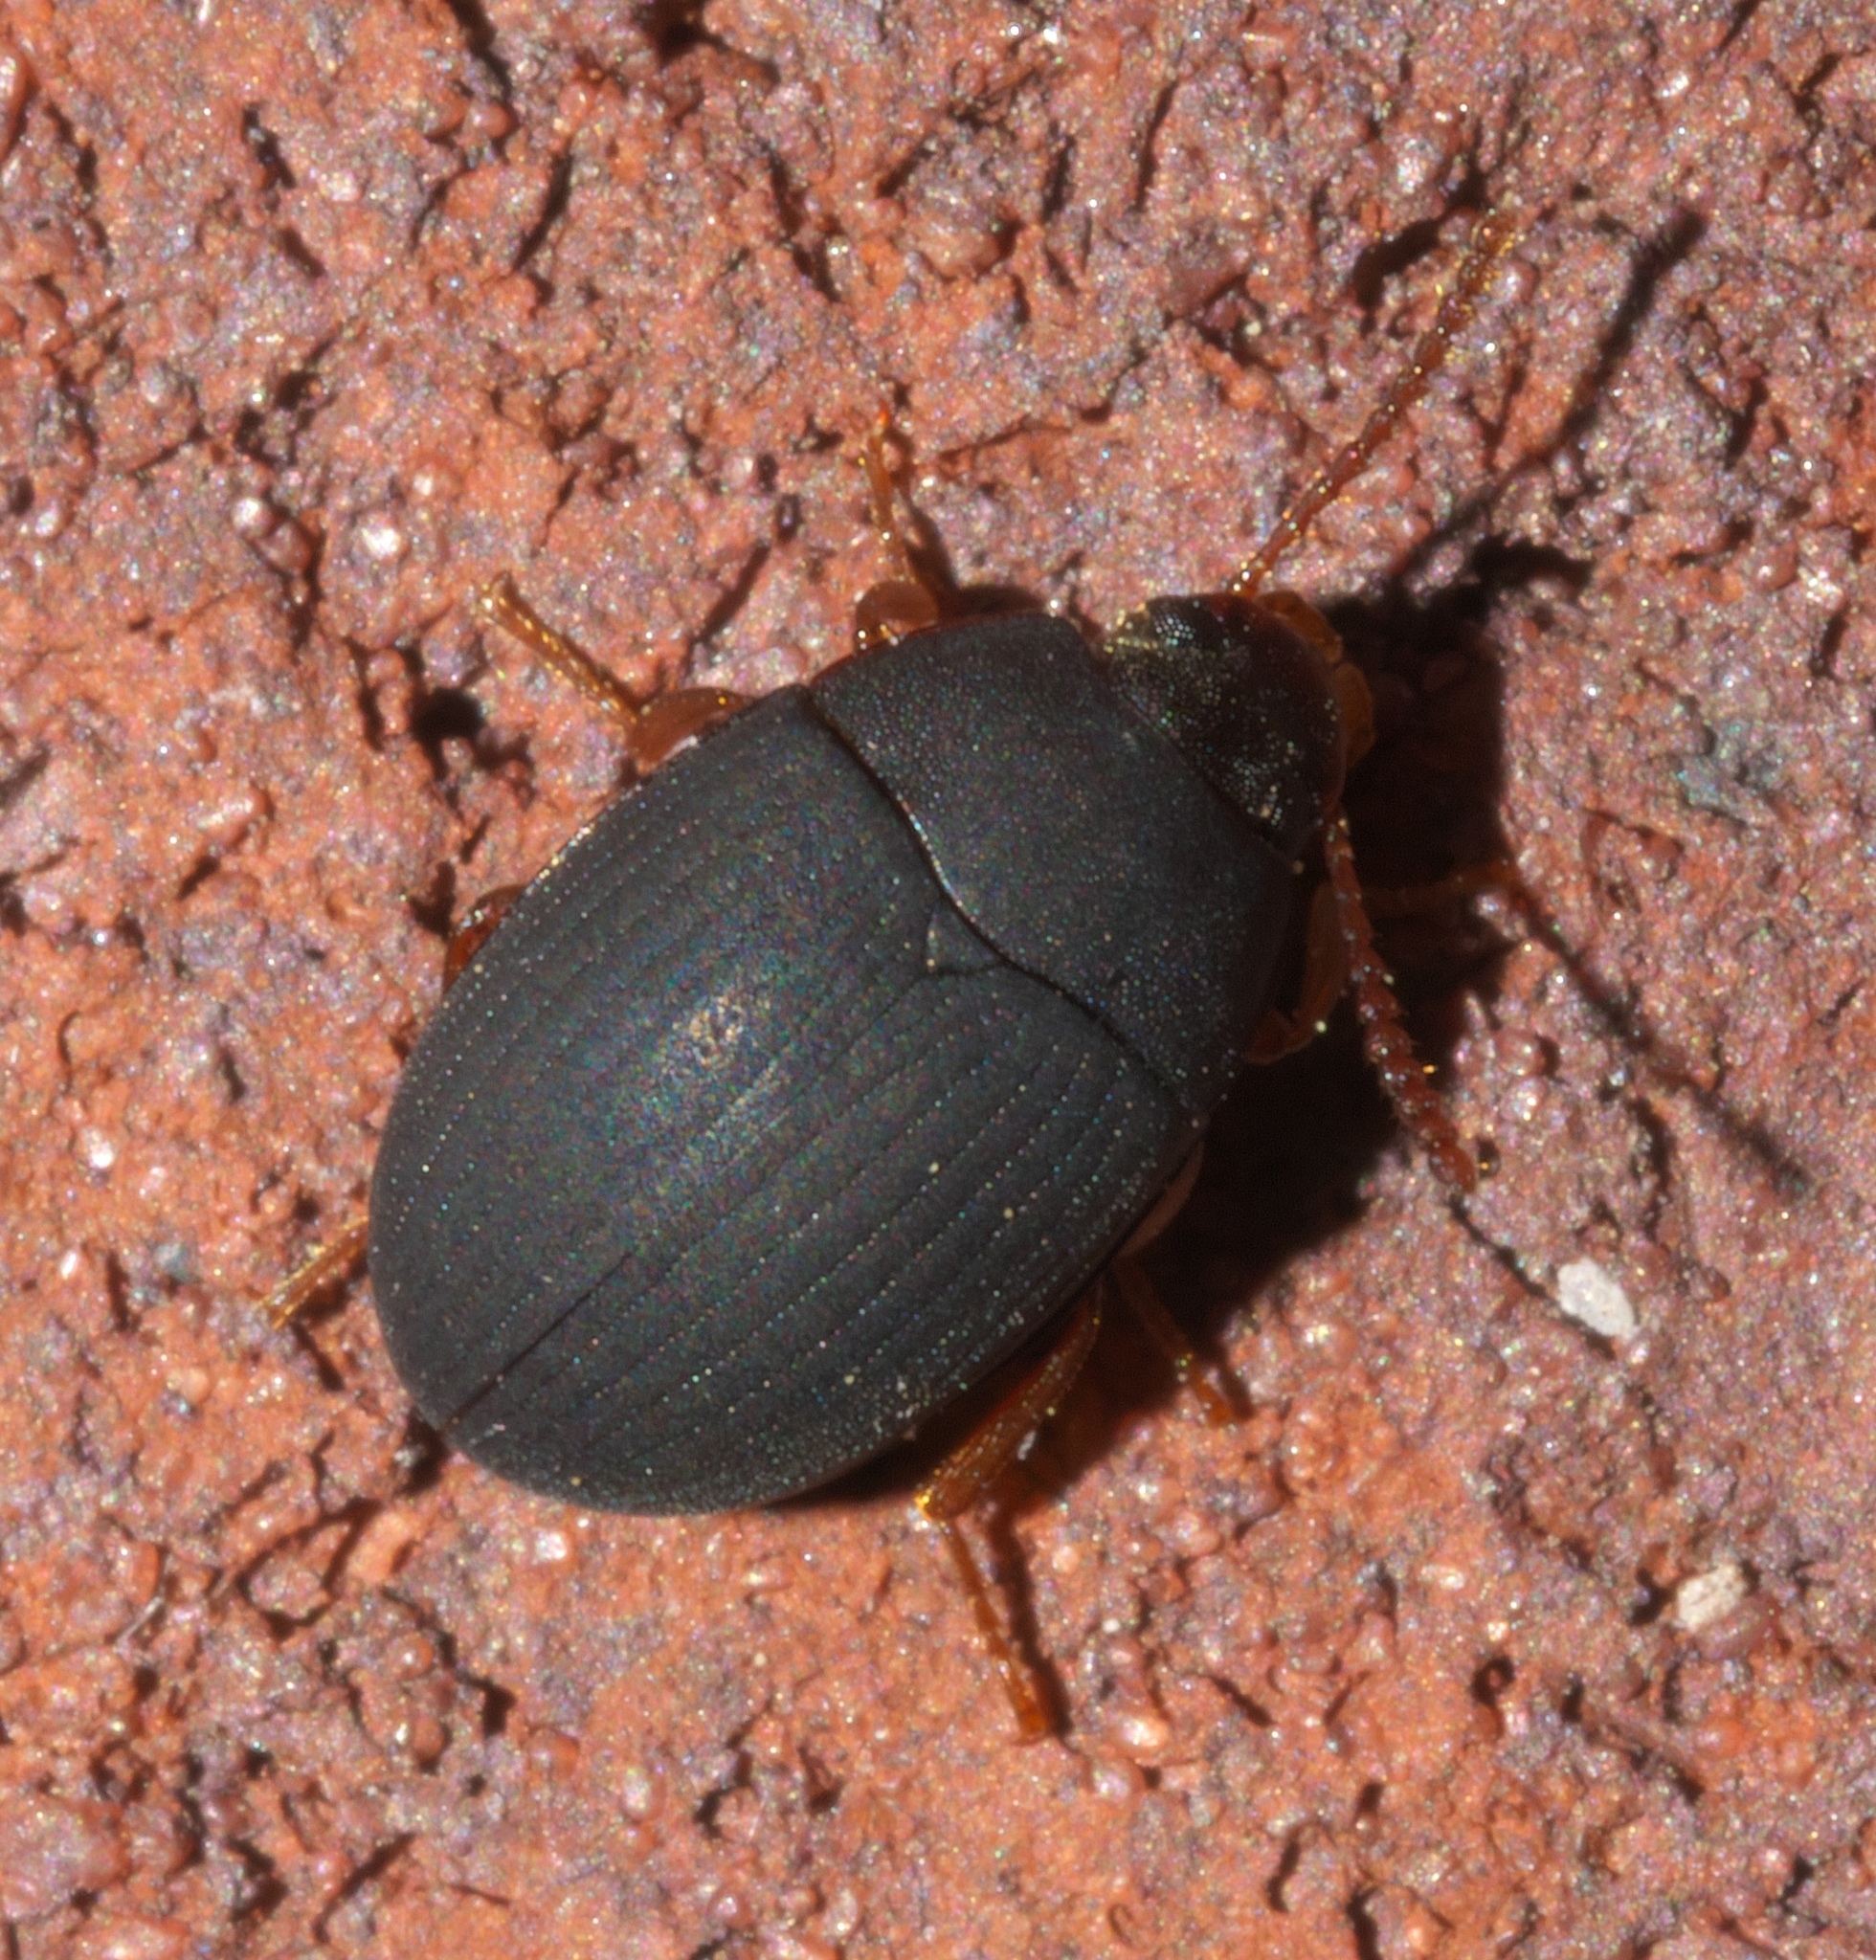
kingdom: Animalia
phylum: Arthropoda
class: Insecta
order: Coleoptera
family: Tenebrionidae
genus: Platydema
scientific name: Platydema ruficornis
